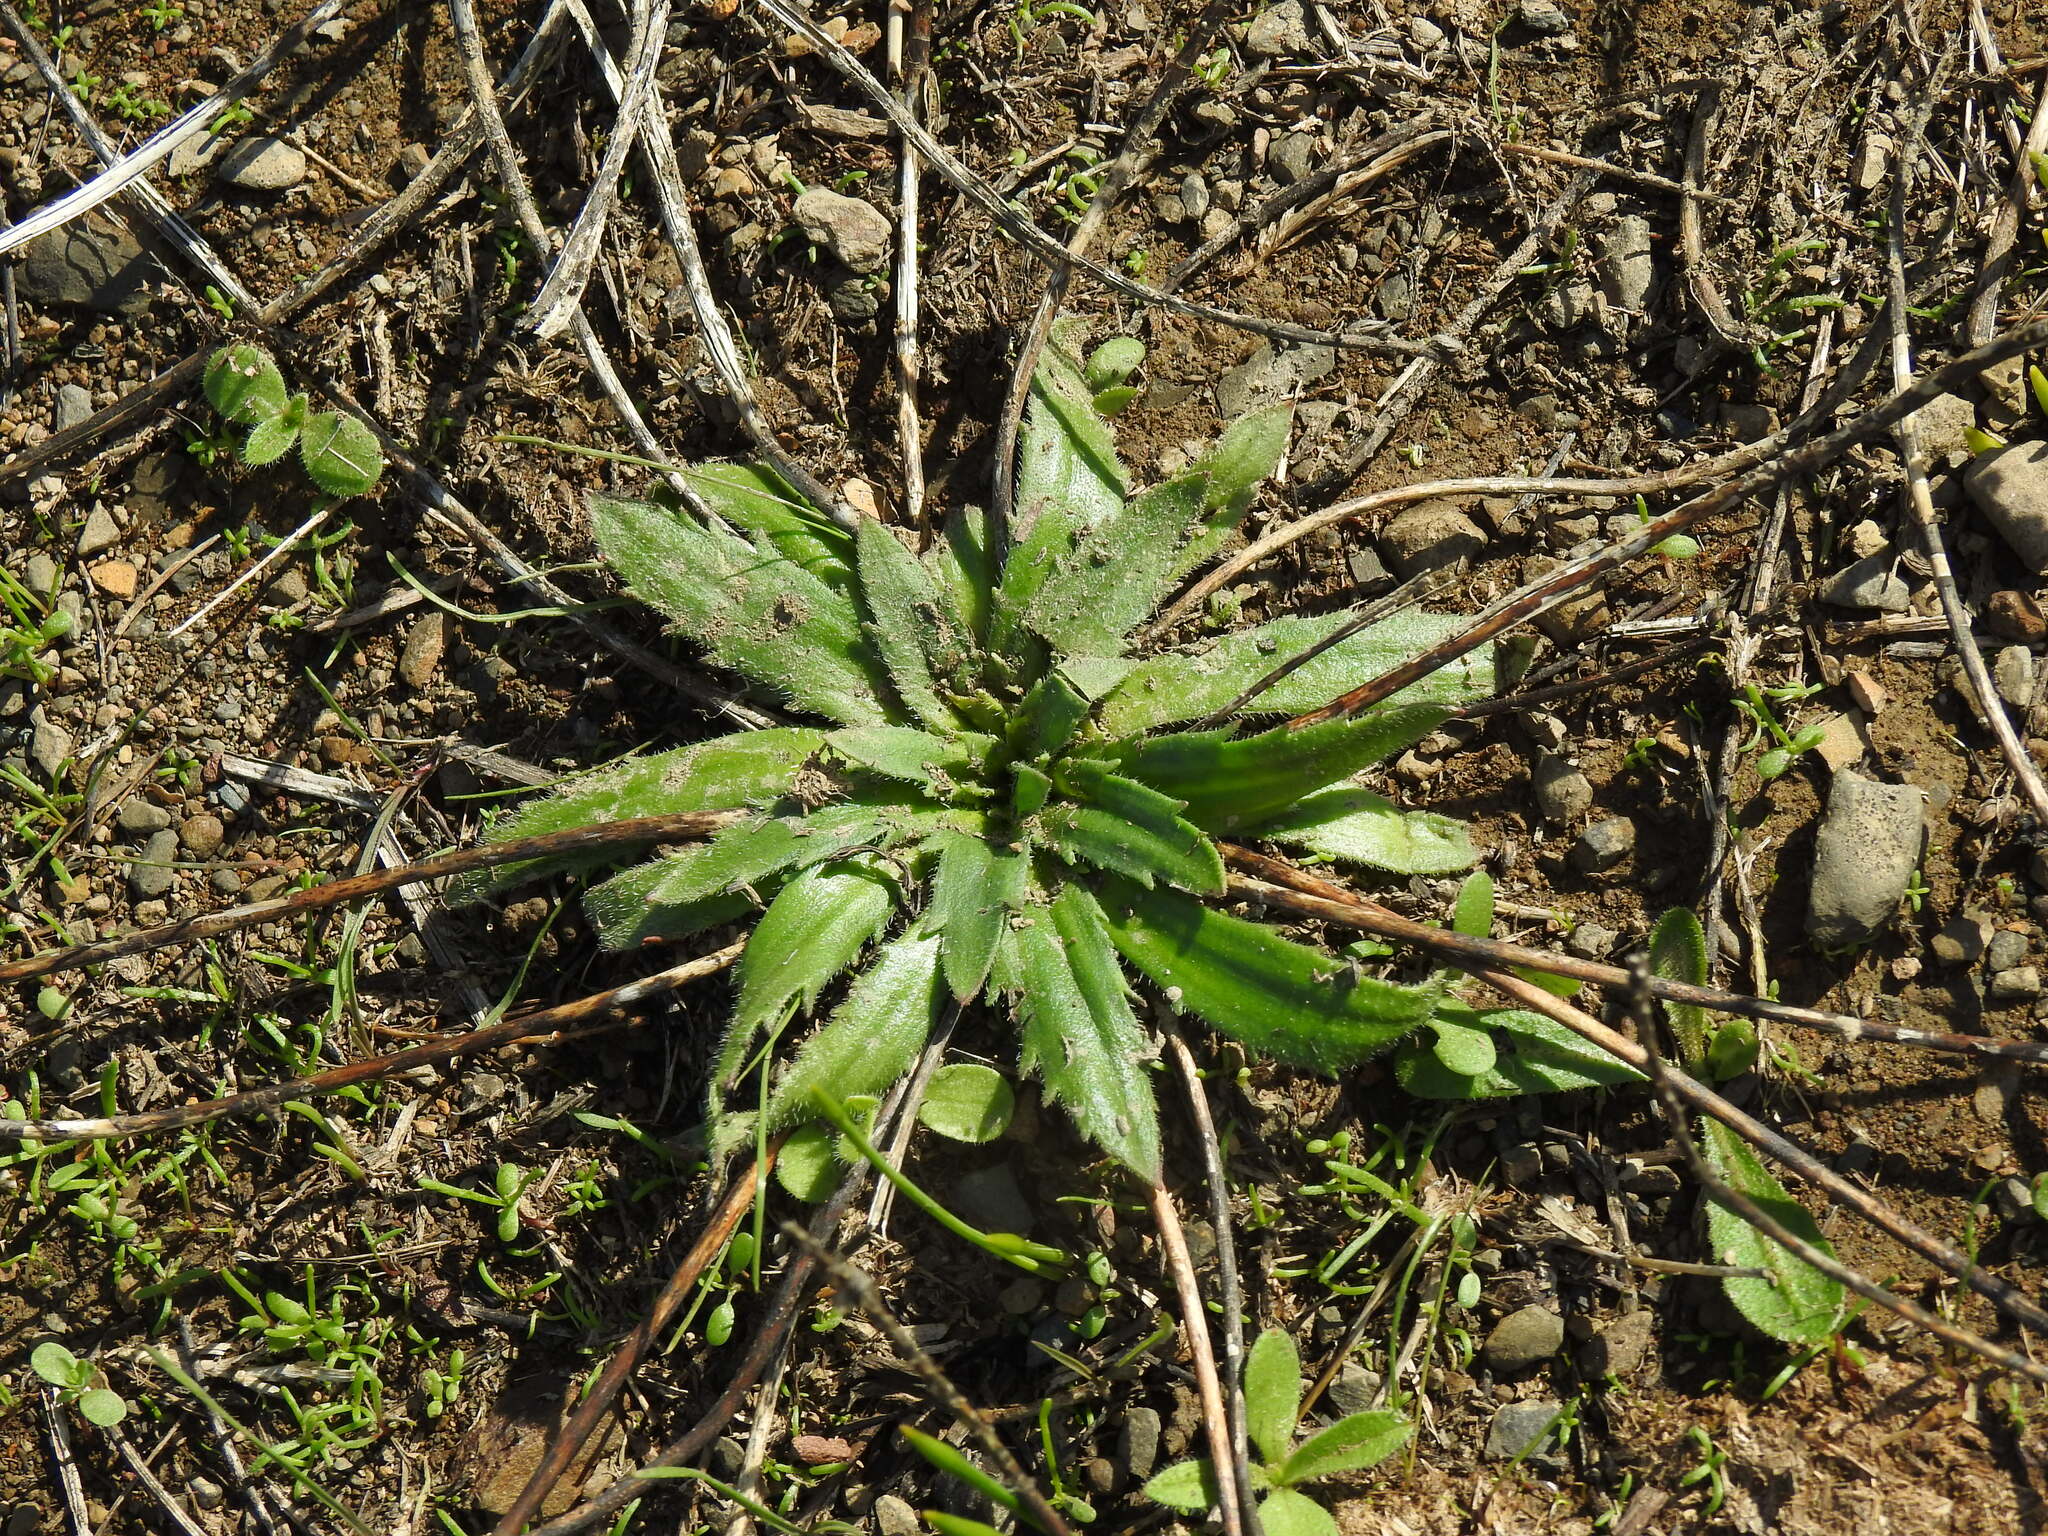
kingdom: Plantae
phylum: Tracheophyta
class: Magnoliopsida
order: Lamiales
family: Plantaginaceae
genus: Plantago
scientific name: Plantago serraria
